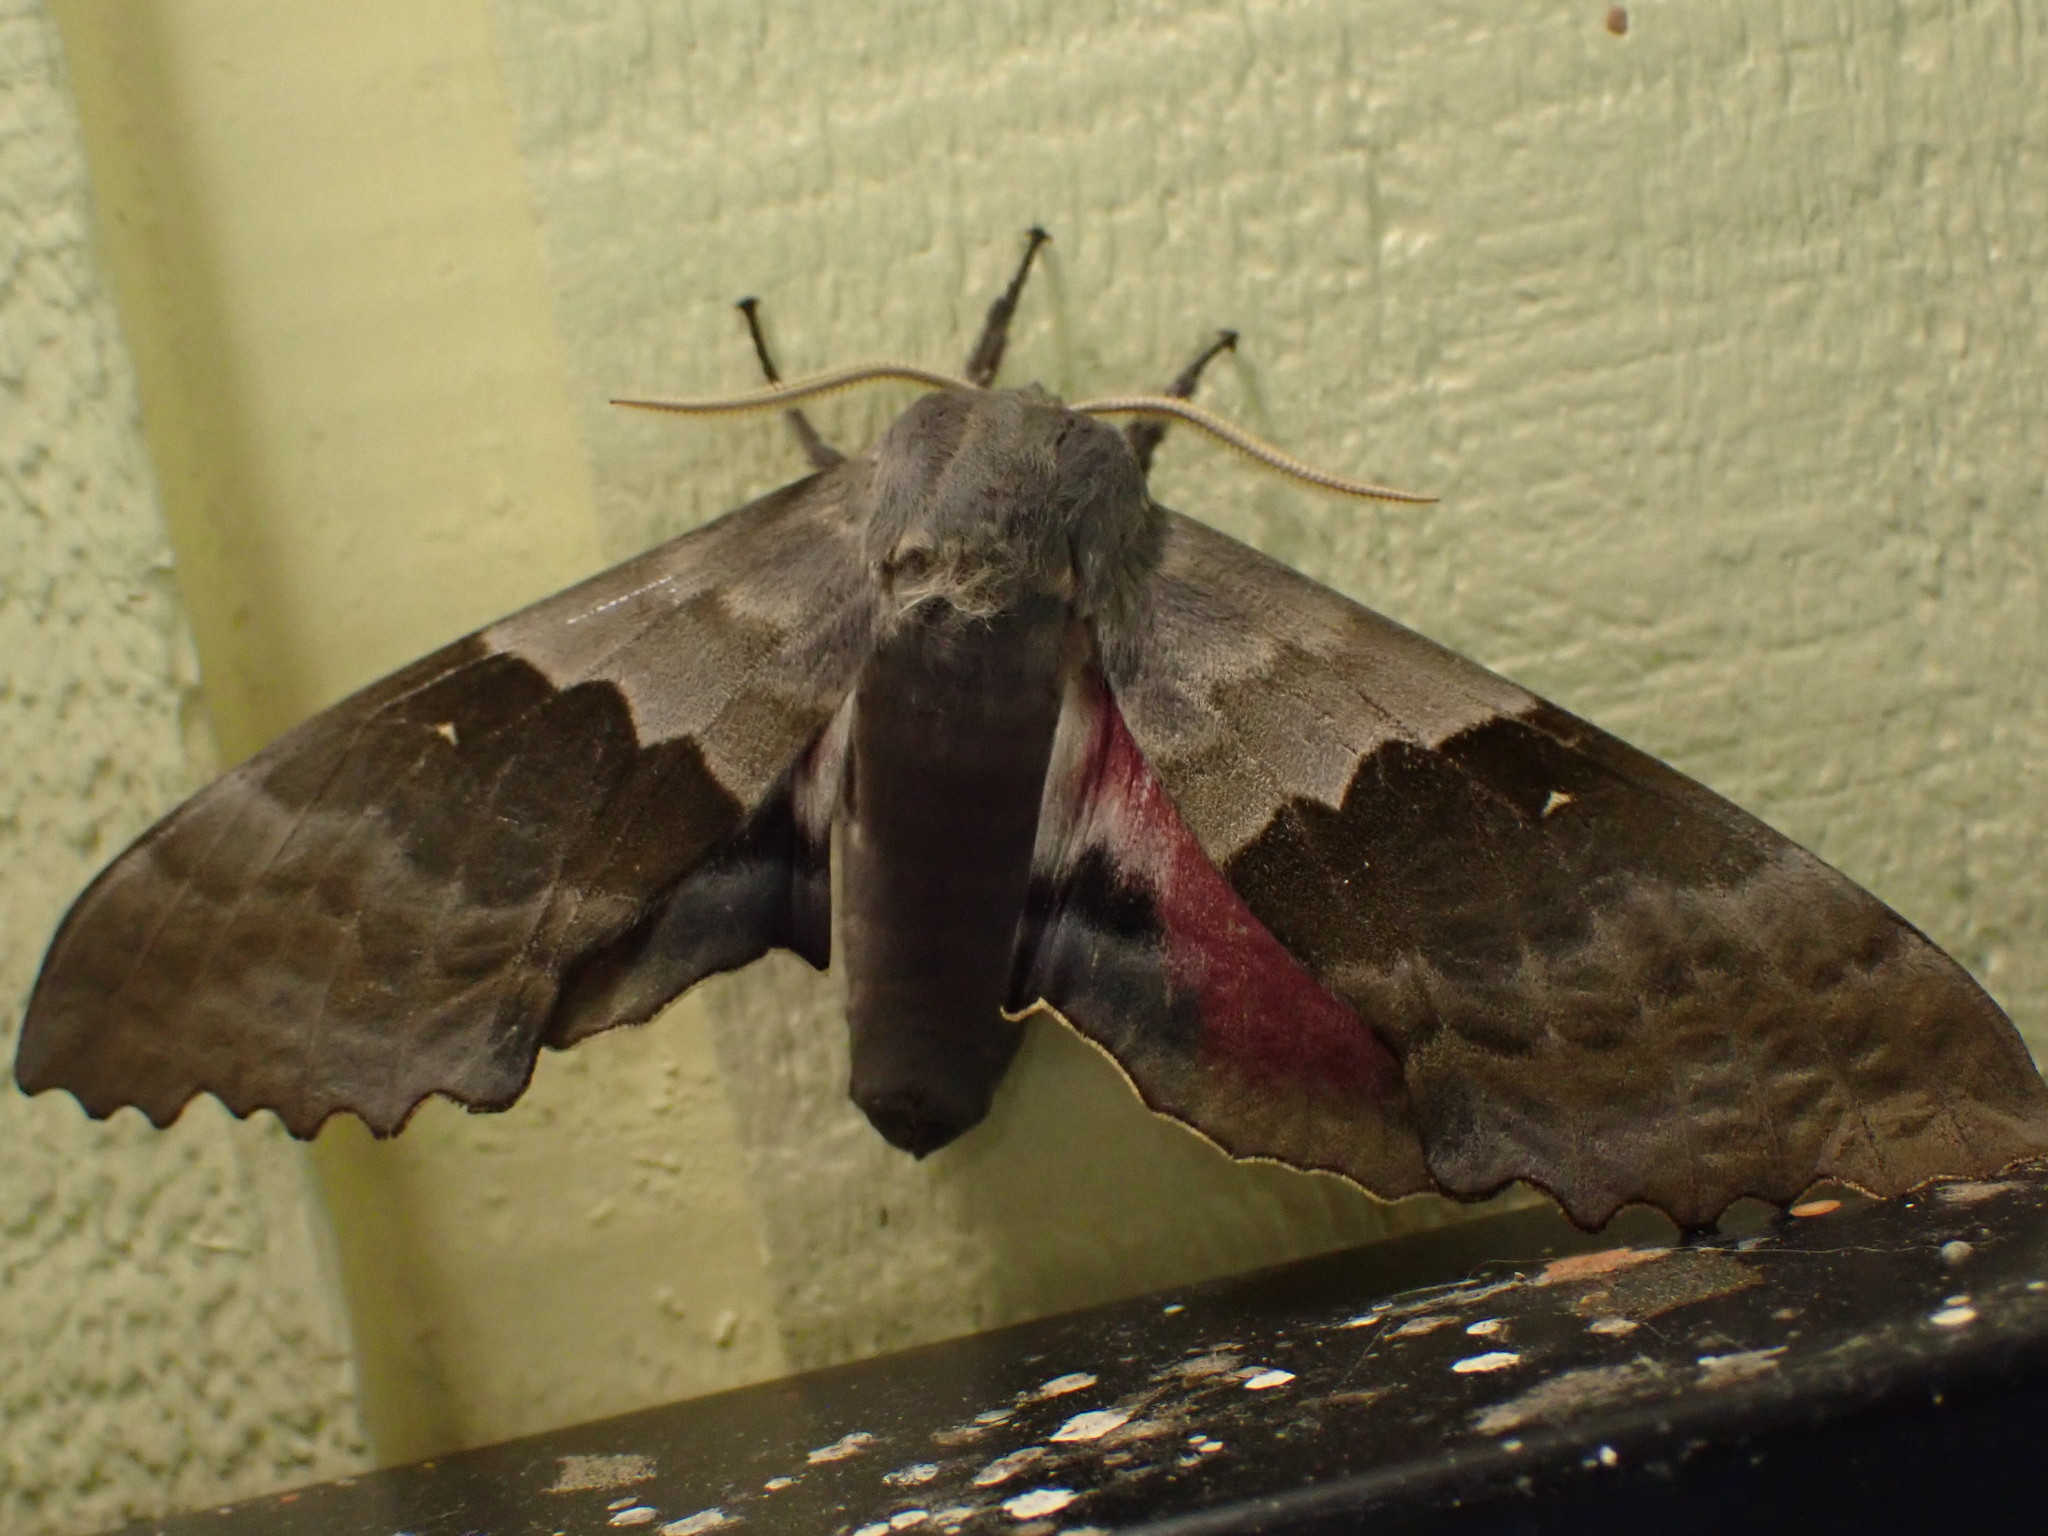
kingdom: Animalia
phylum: Arthropoda
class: Insecta
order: Lepidoptera
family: Sphingidae
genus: Pachysphinx
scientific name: Pachysphinx modesta
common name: Big poplar sphinx
